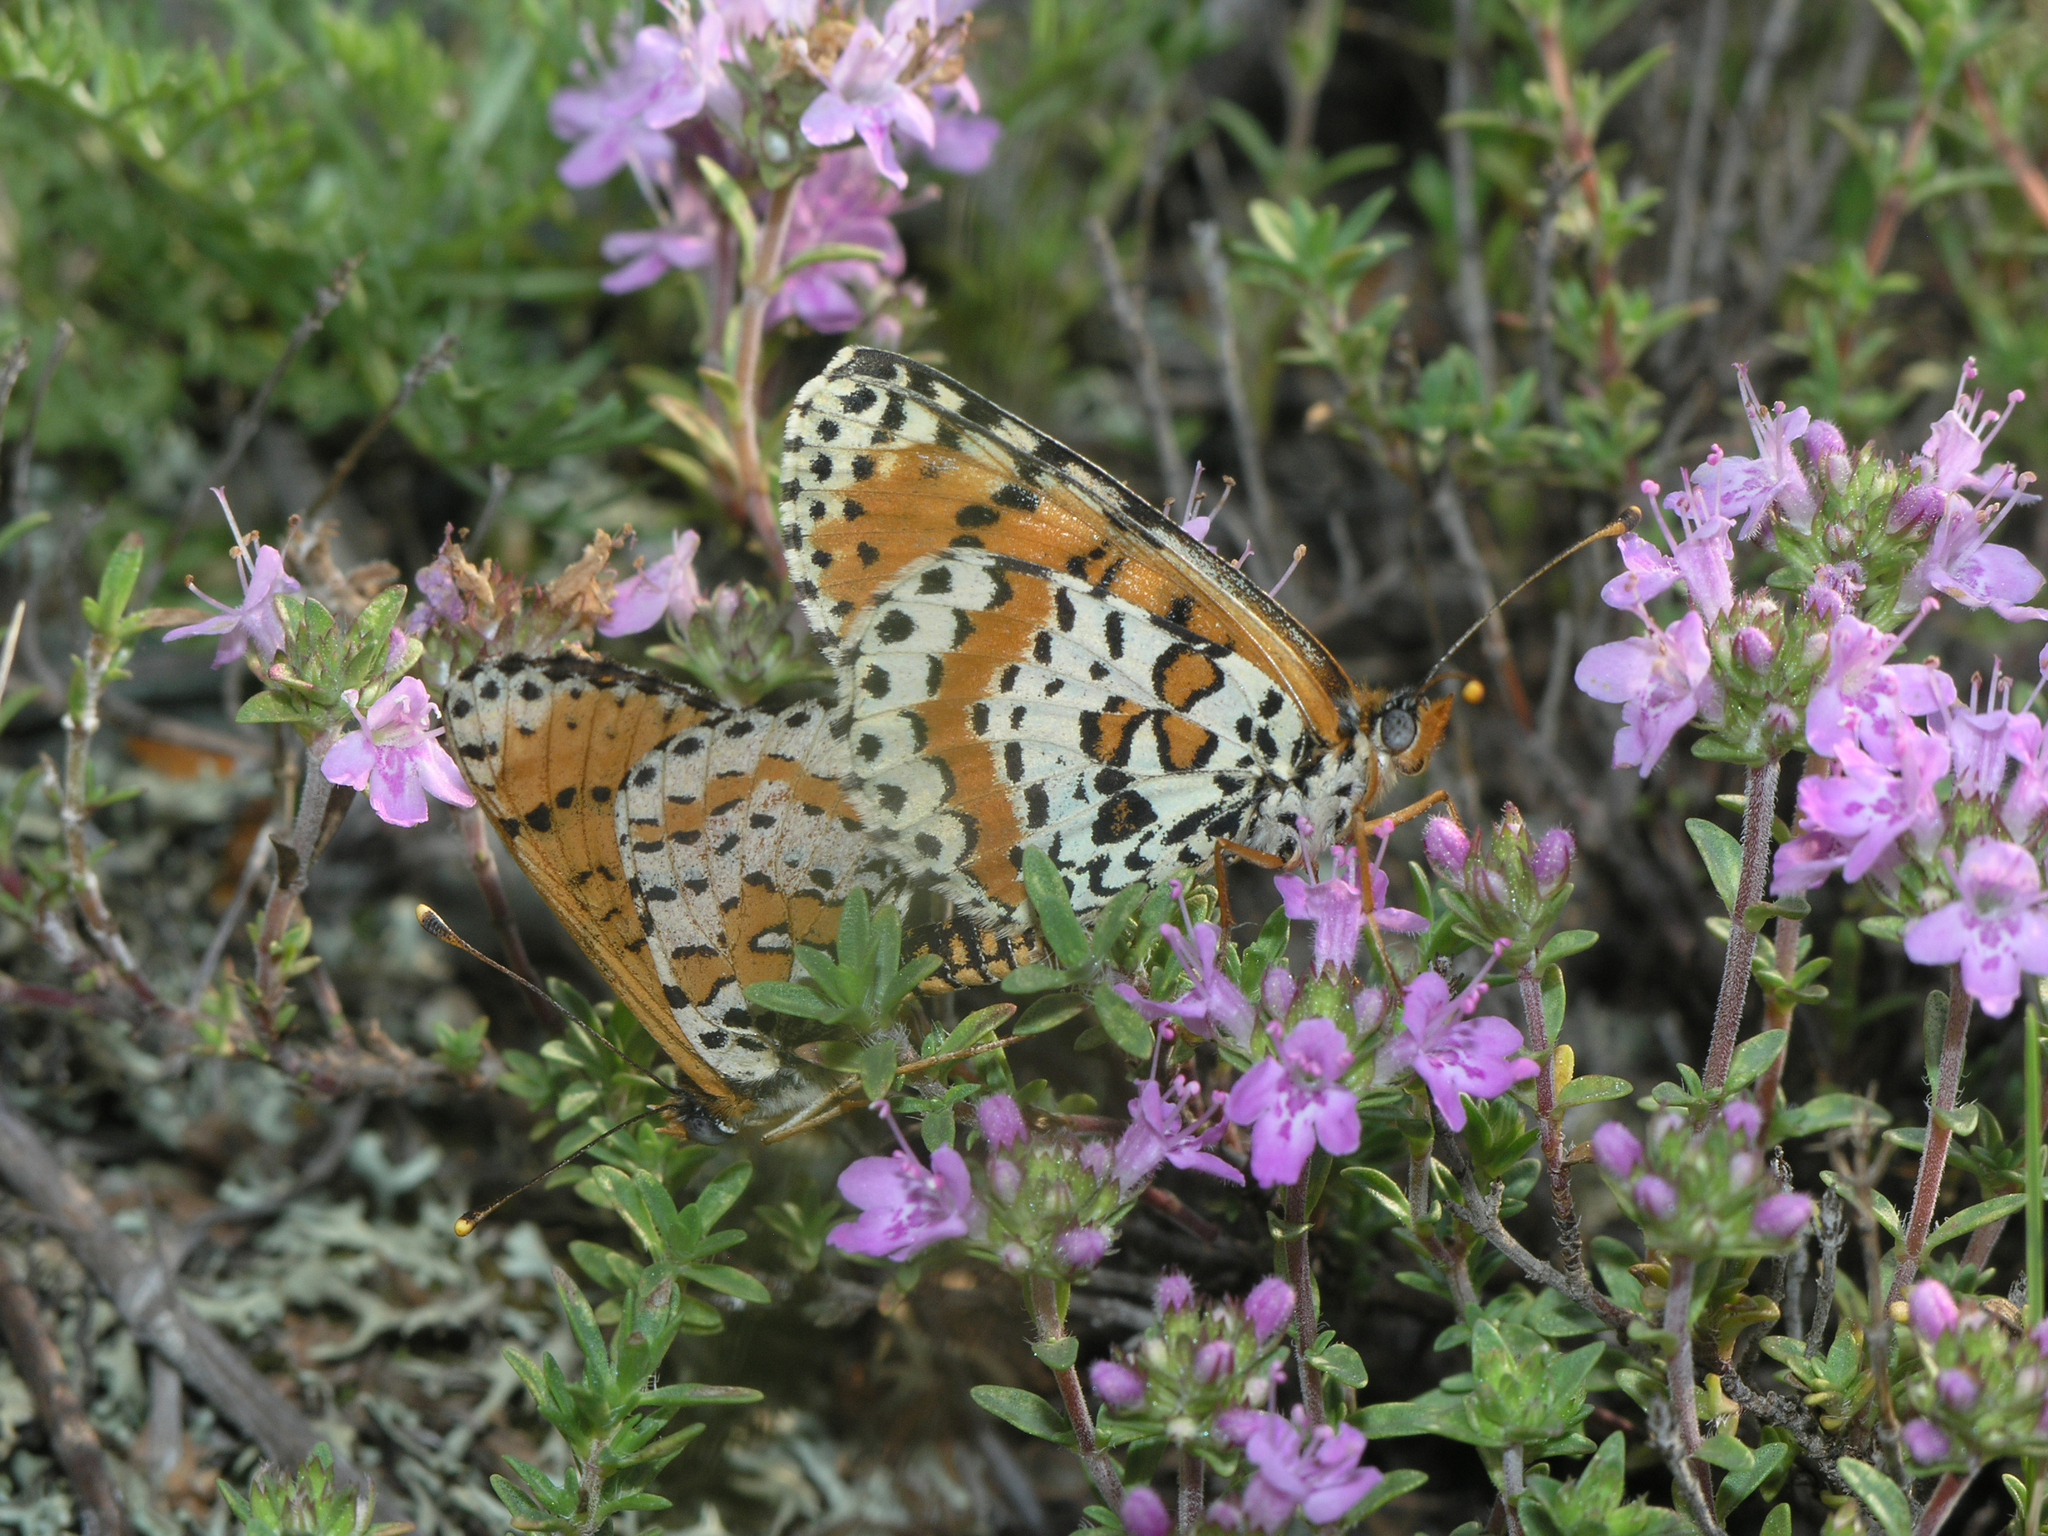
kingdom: Animalia
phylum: Arthropoda
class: Insecta
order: Lepidoptera
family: Nymphalidae
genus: Melitaea
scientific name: Melitaea didyma
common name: Spotted fritillary
